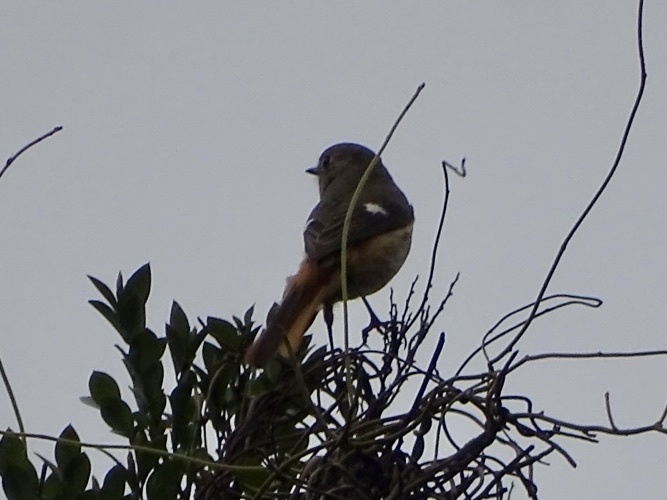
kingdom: Animalia
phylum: Chordata
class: Aves
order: Passeriformes
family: Muscicapidae
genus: Phoenicurus
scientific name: Phoenicurus auroreus
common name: Daurian redstart
